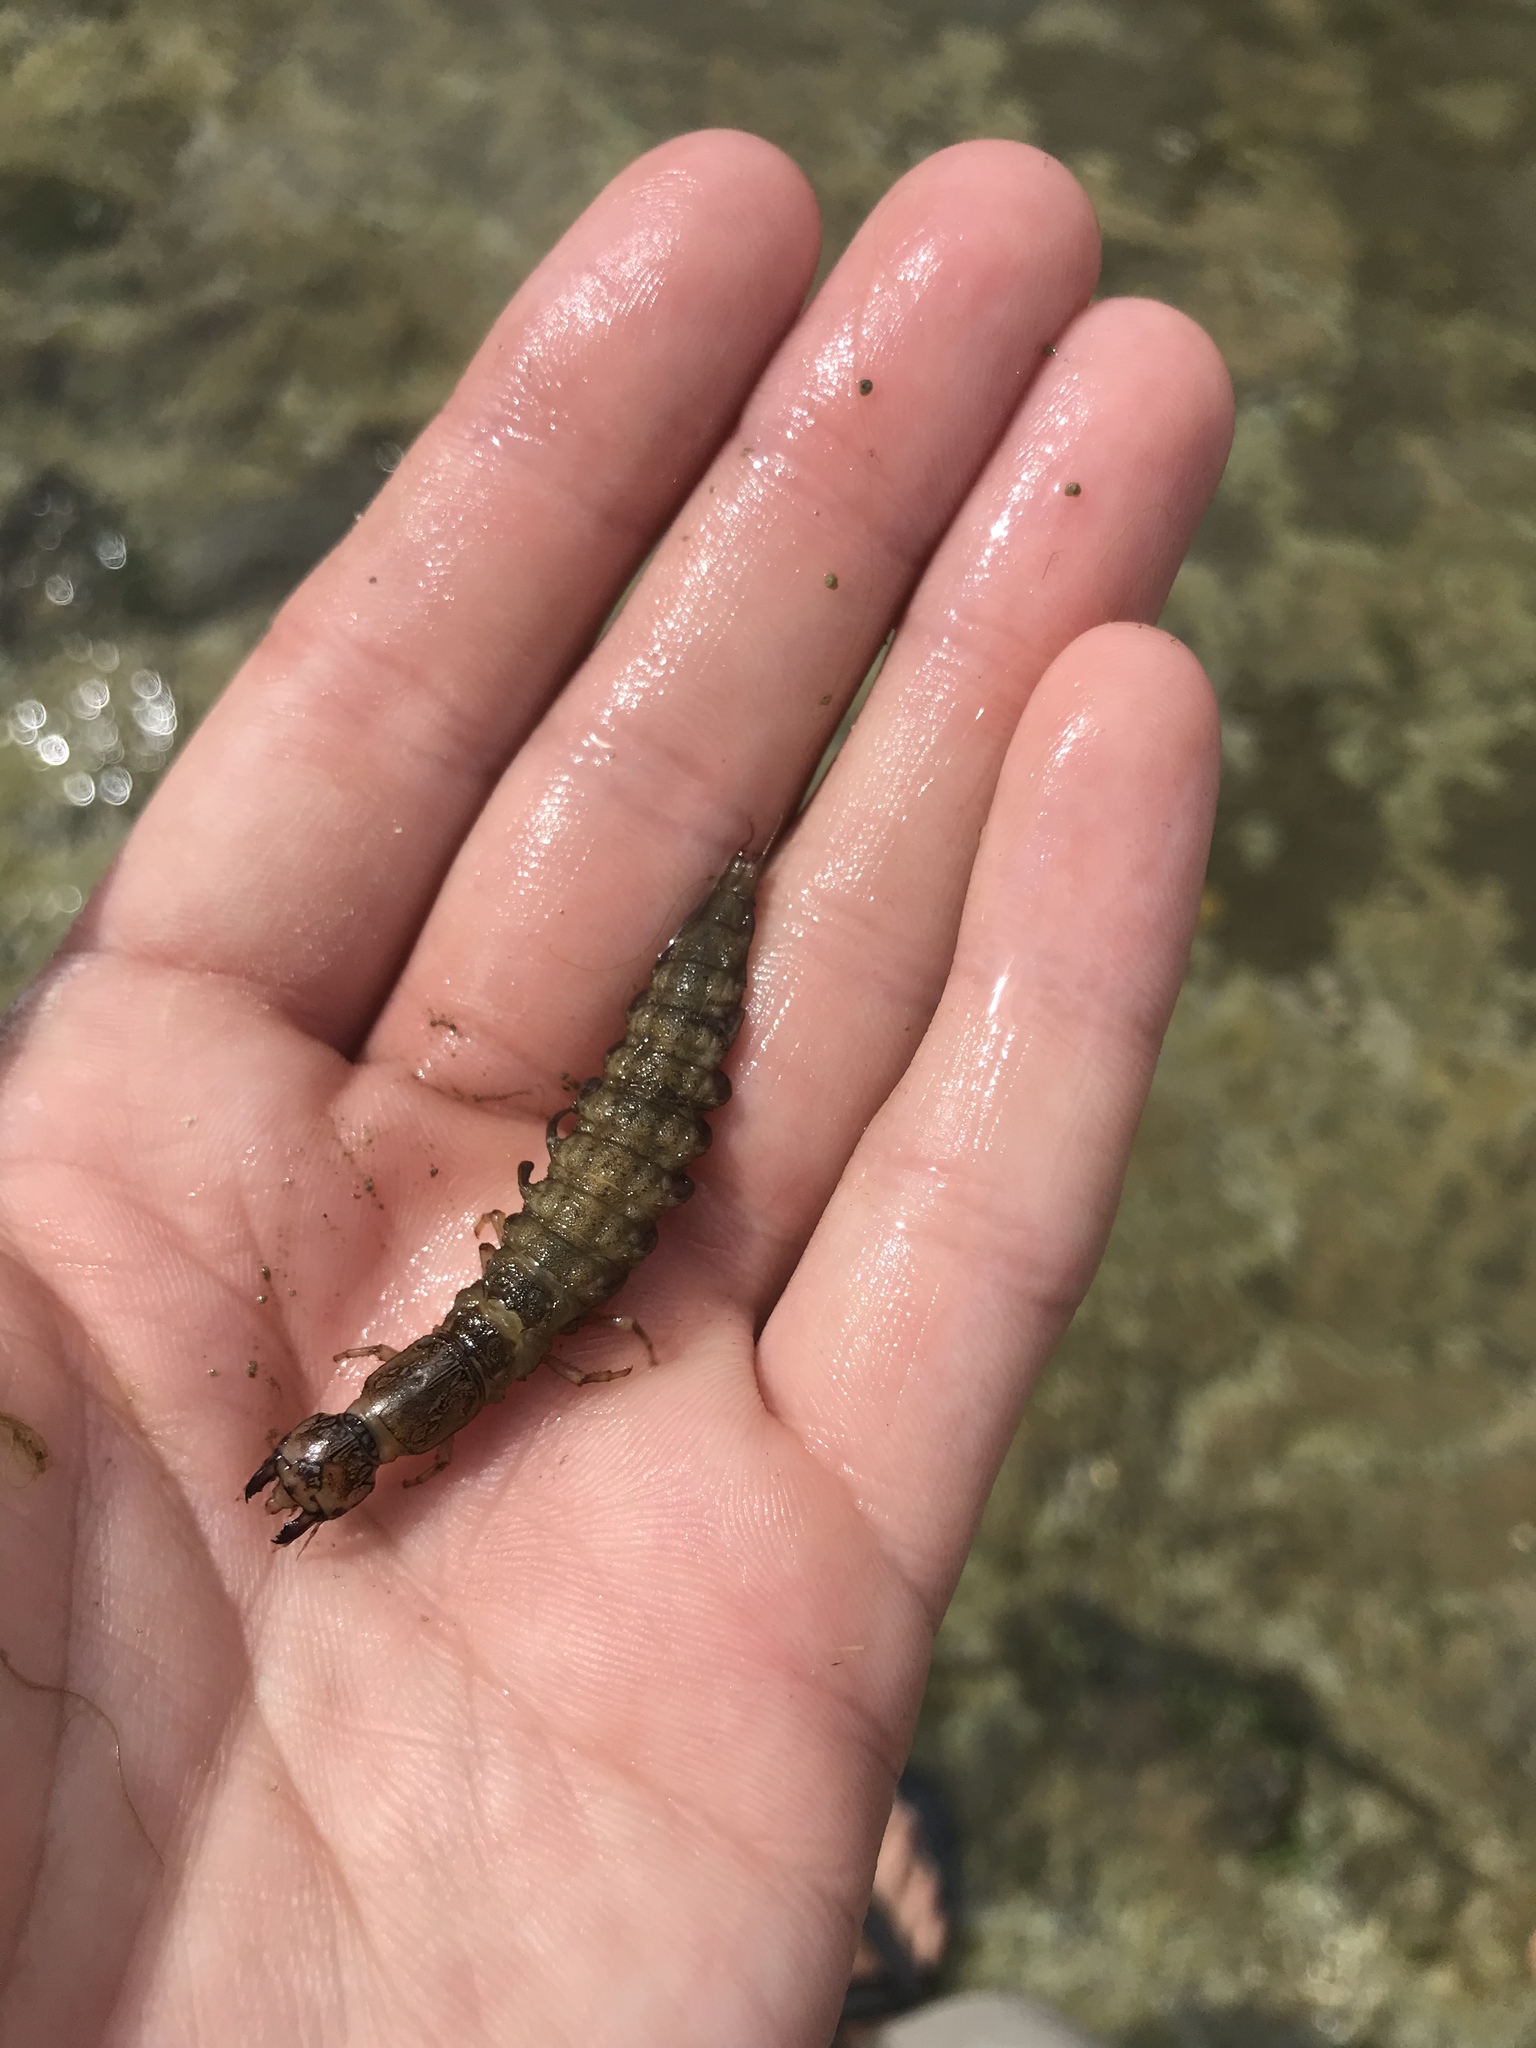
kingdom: Animalia
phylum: Arthropoda
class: Insecta
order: Megaloptera
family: Corydalidae
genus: Corydalus
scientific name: Corydalus cornutus
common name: Dobsonfly
